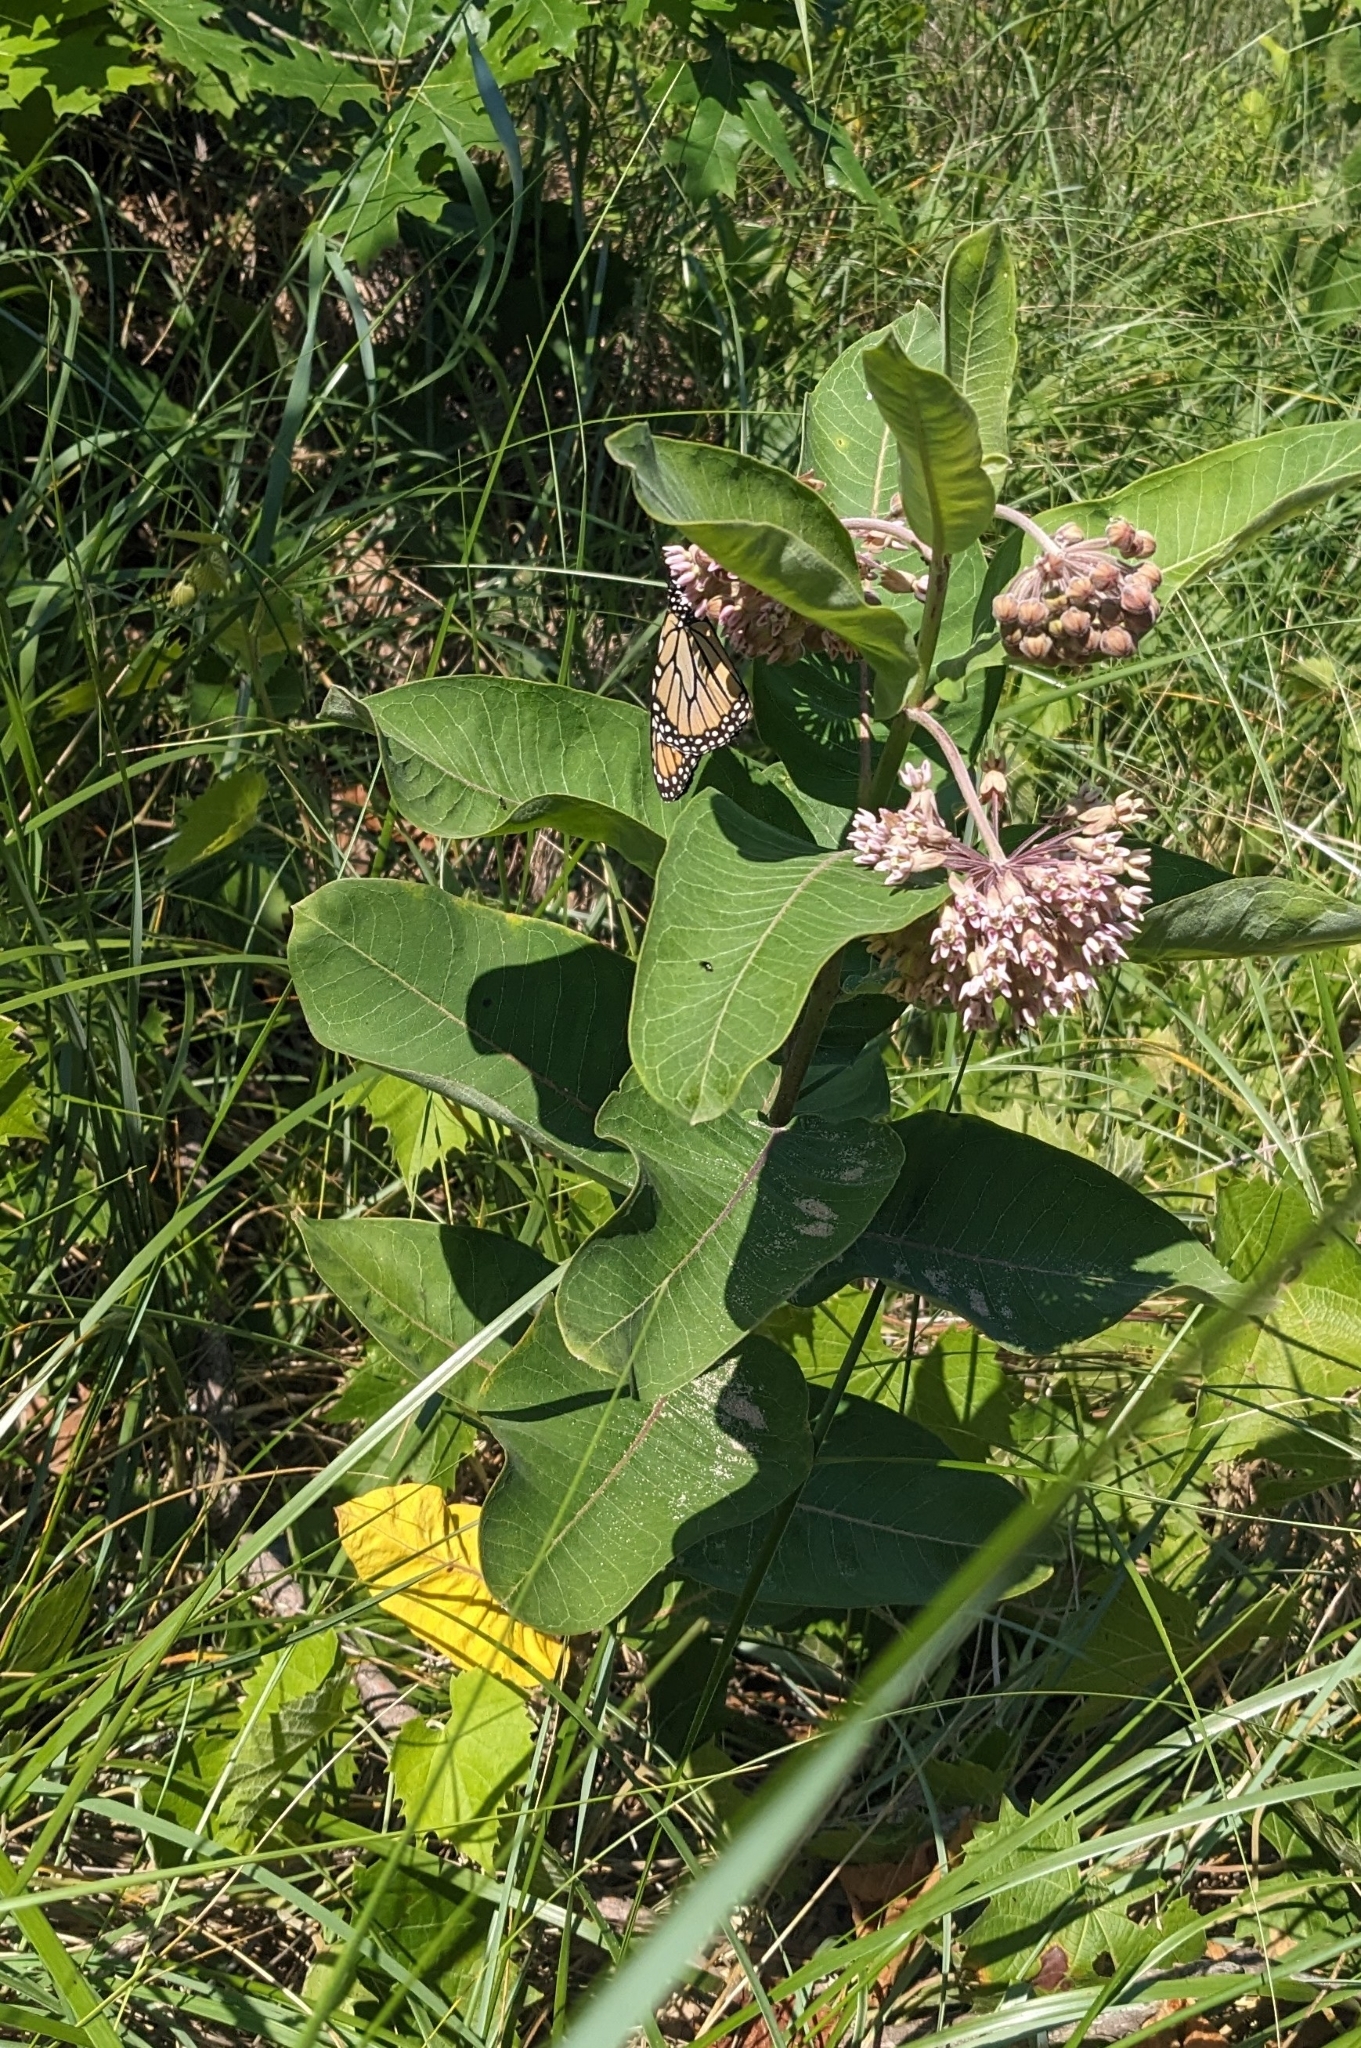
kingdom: Animalia
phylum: Arthropoda
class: Insecta
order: Lepidoptera
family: Nymphalidae
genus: Danaus
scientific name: Danaus plexippus
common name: Monarch
